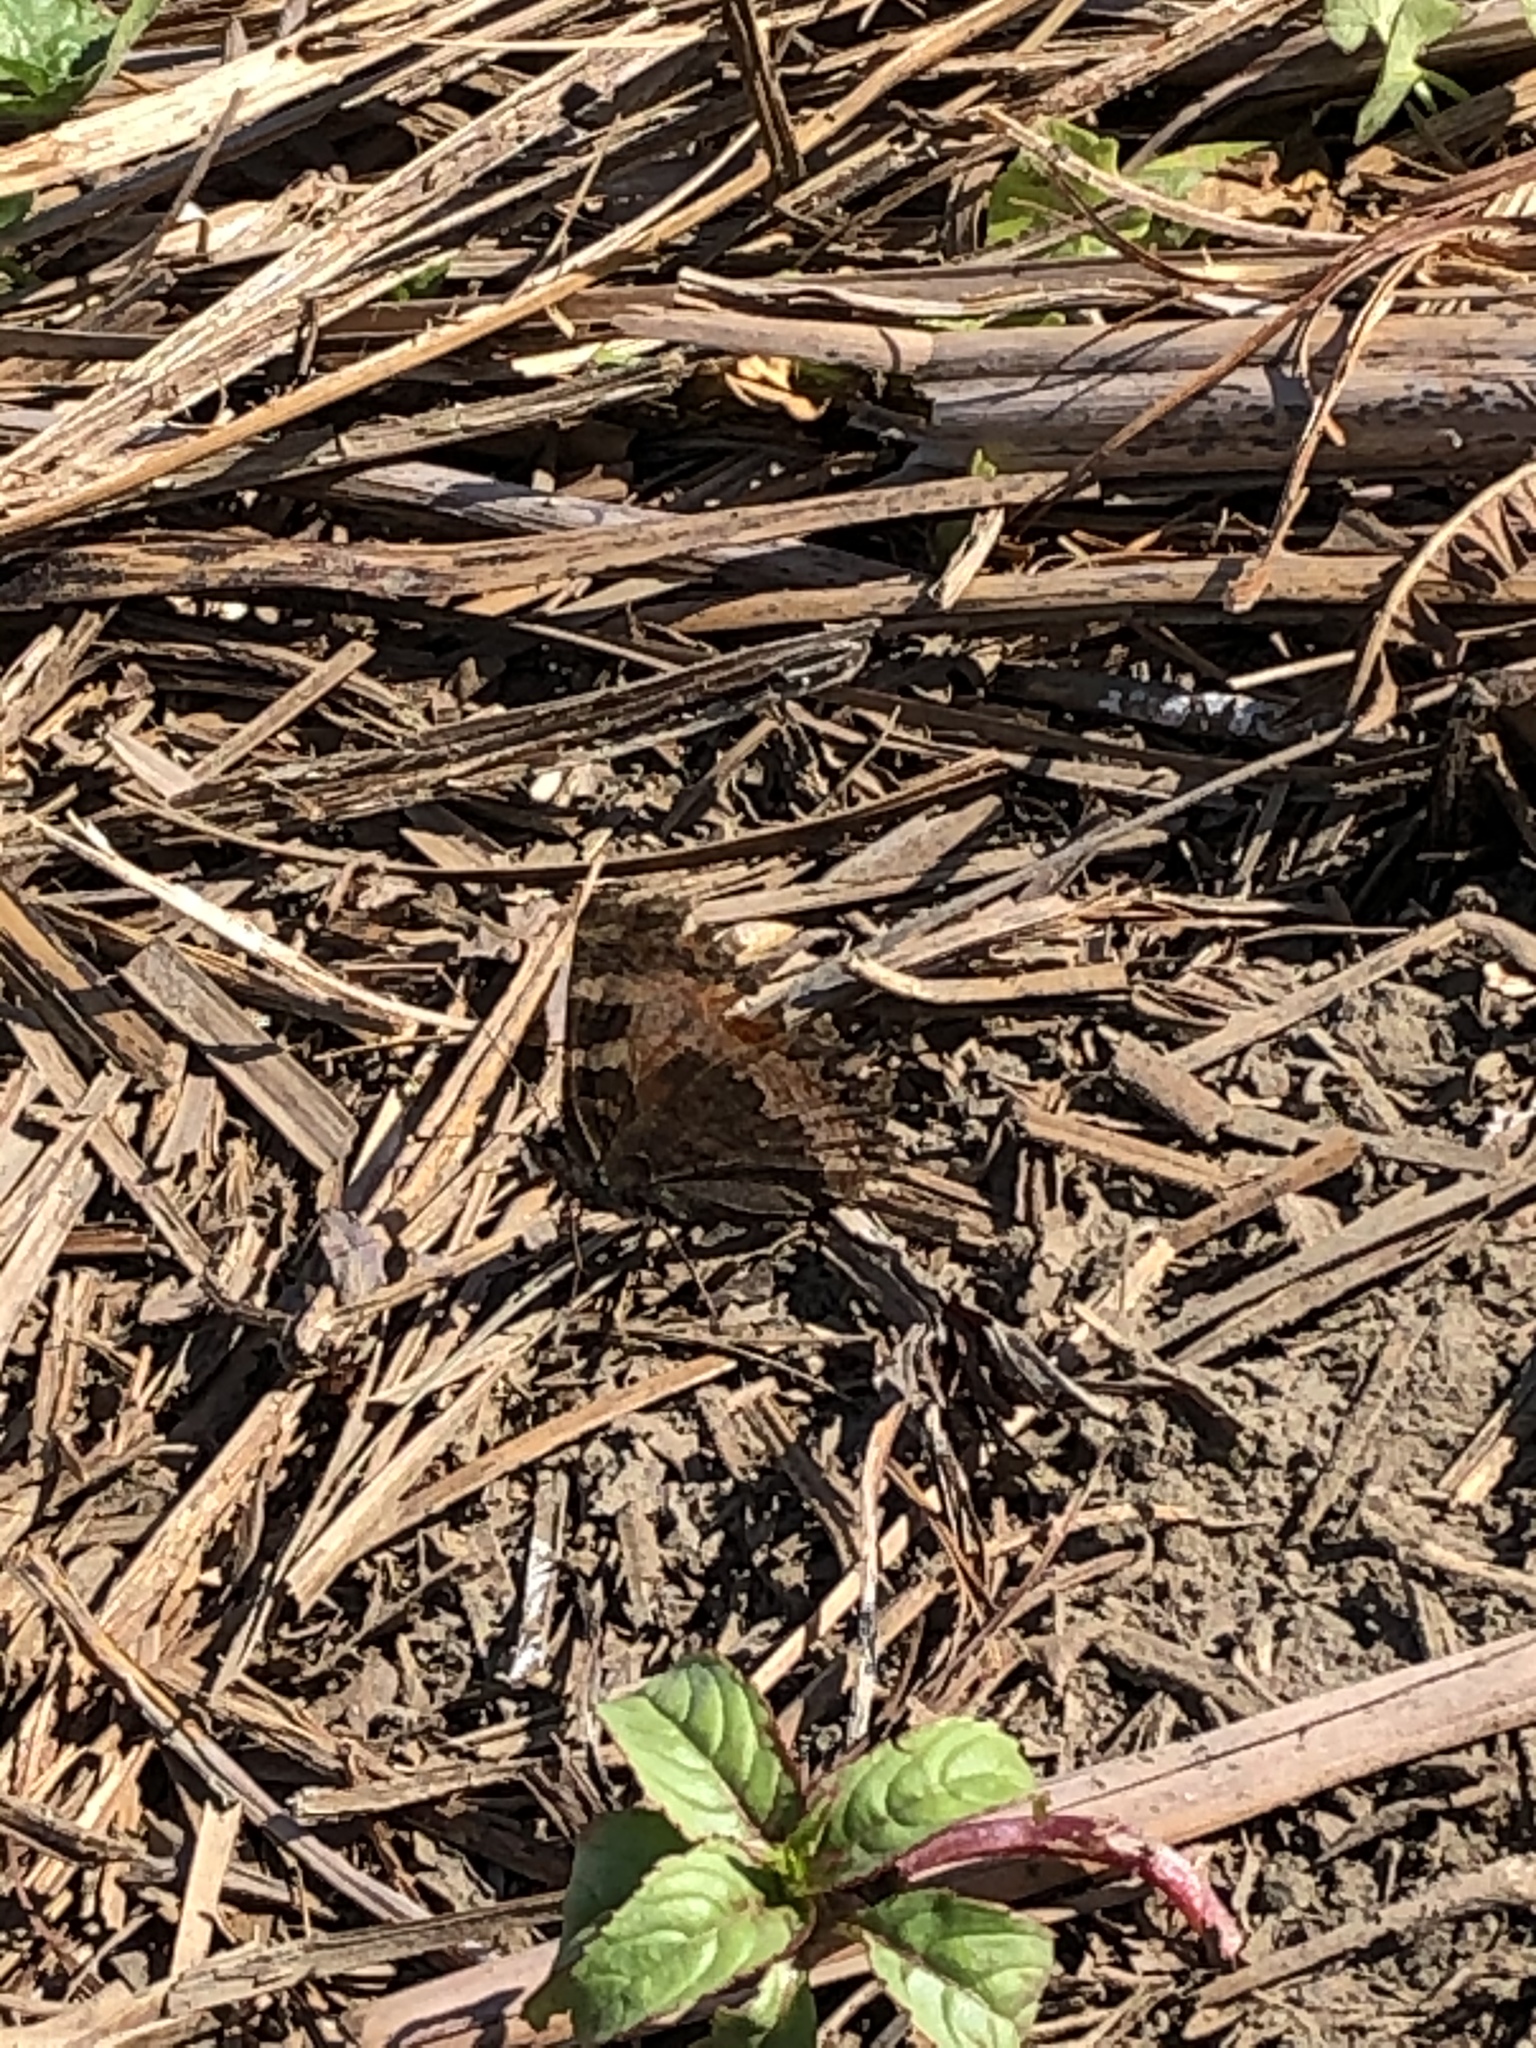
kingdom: Animalia
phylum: Arthropoda
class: Insecta
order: Lepidoptera
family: Nymphalidae
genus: Aglais
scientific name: Aglais urticae
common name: Small tortoiseshell
